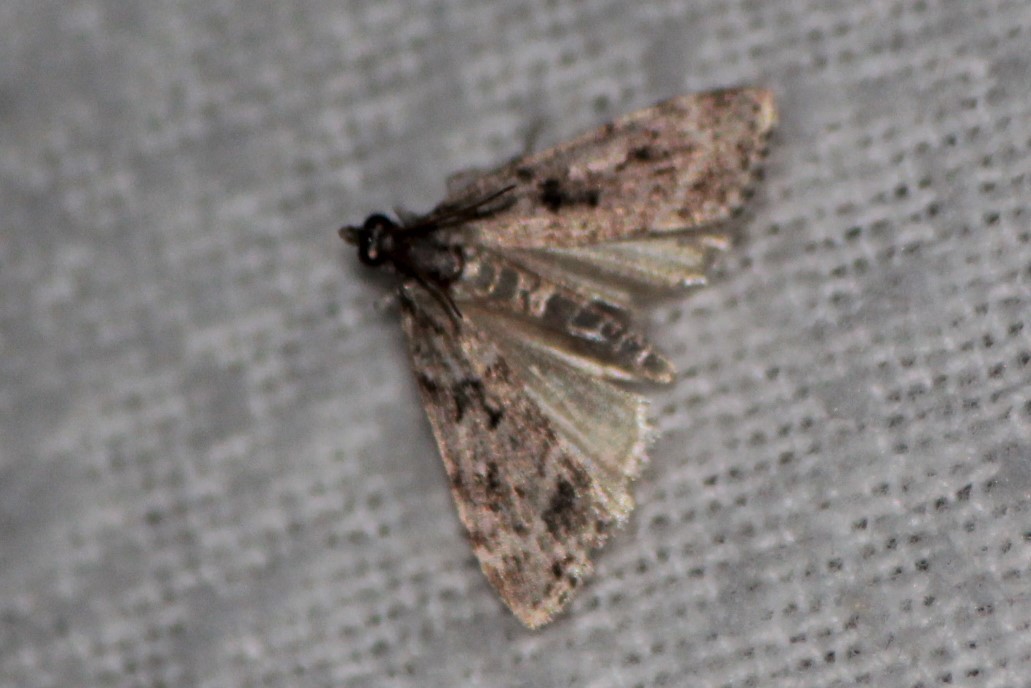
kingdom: Animalia
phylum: Arthropoda
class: Insecta
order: Lepidoptera
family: Crambidae
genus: Palpita
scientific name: Palpita magniferalis
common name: Splendid palpita moth
